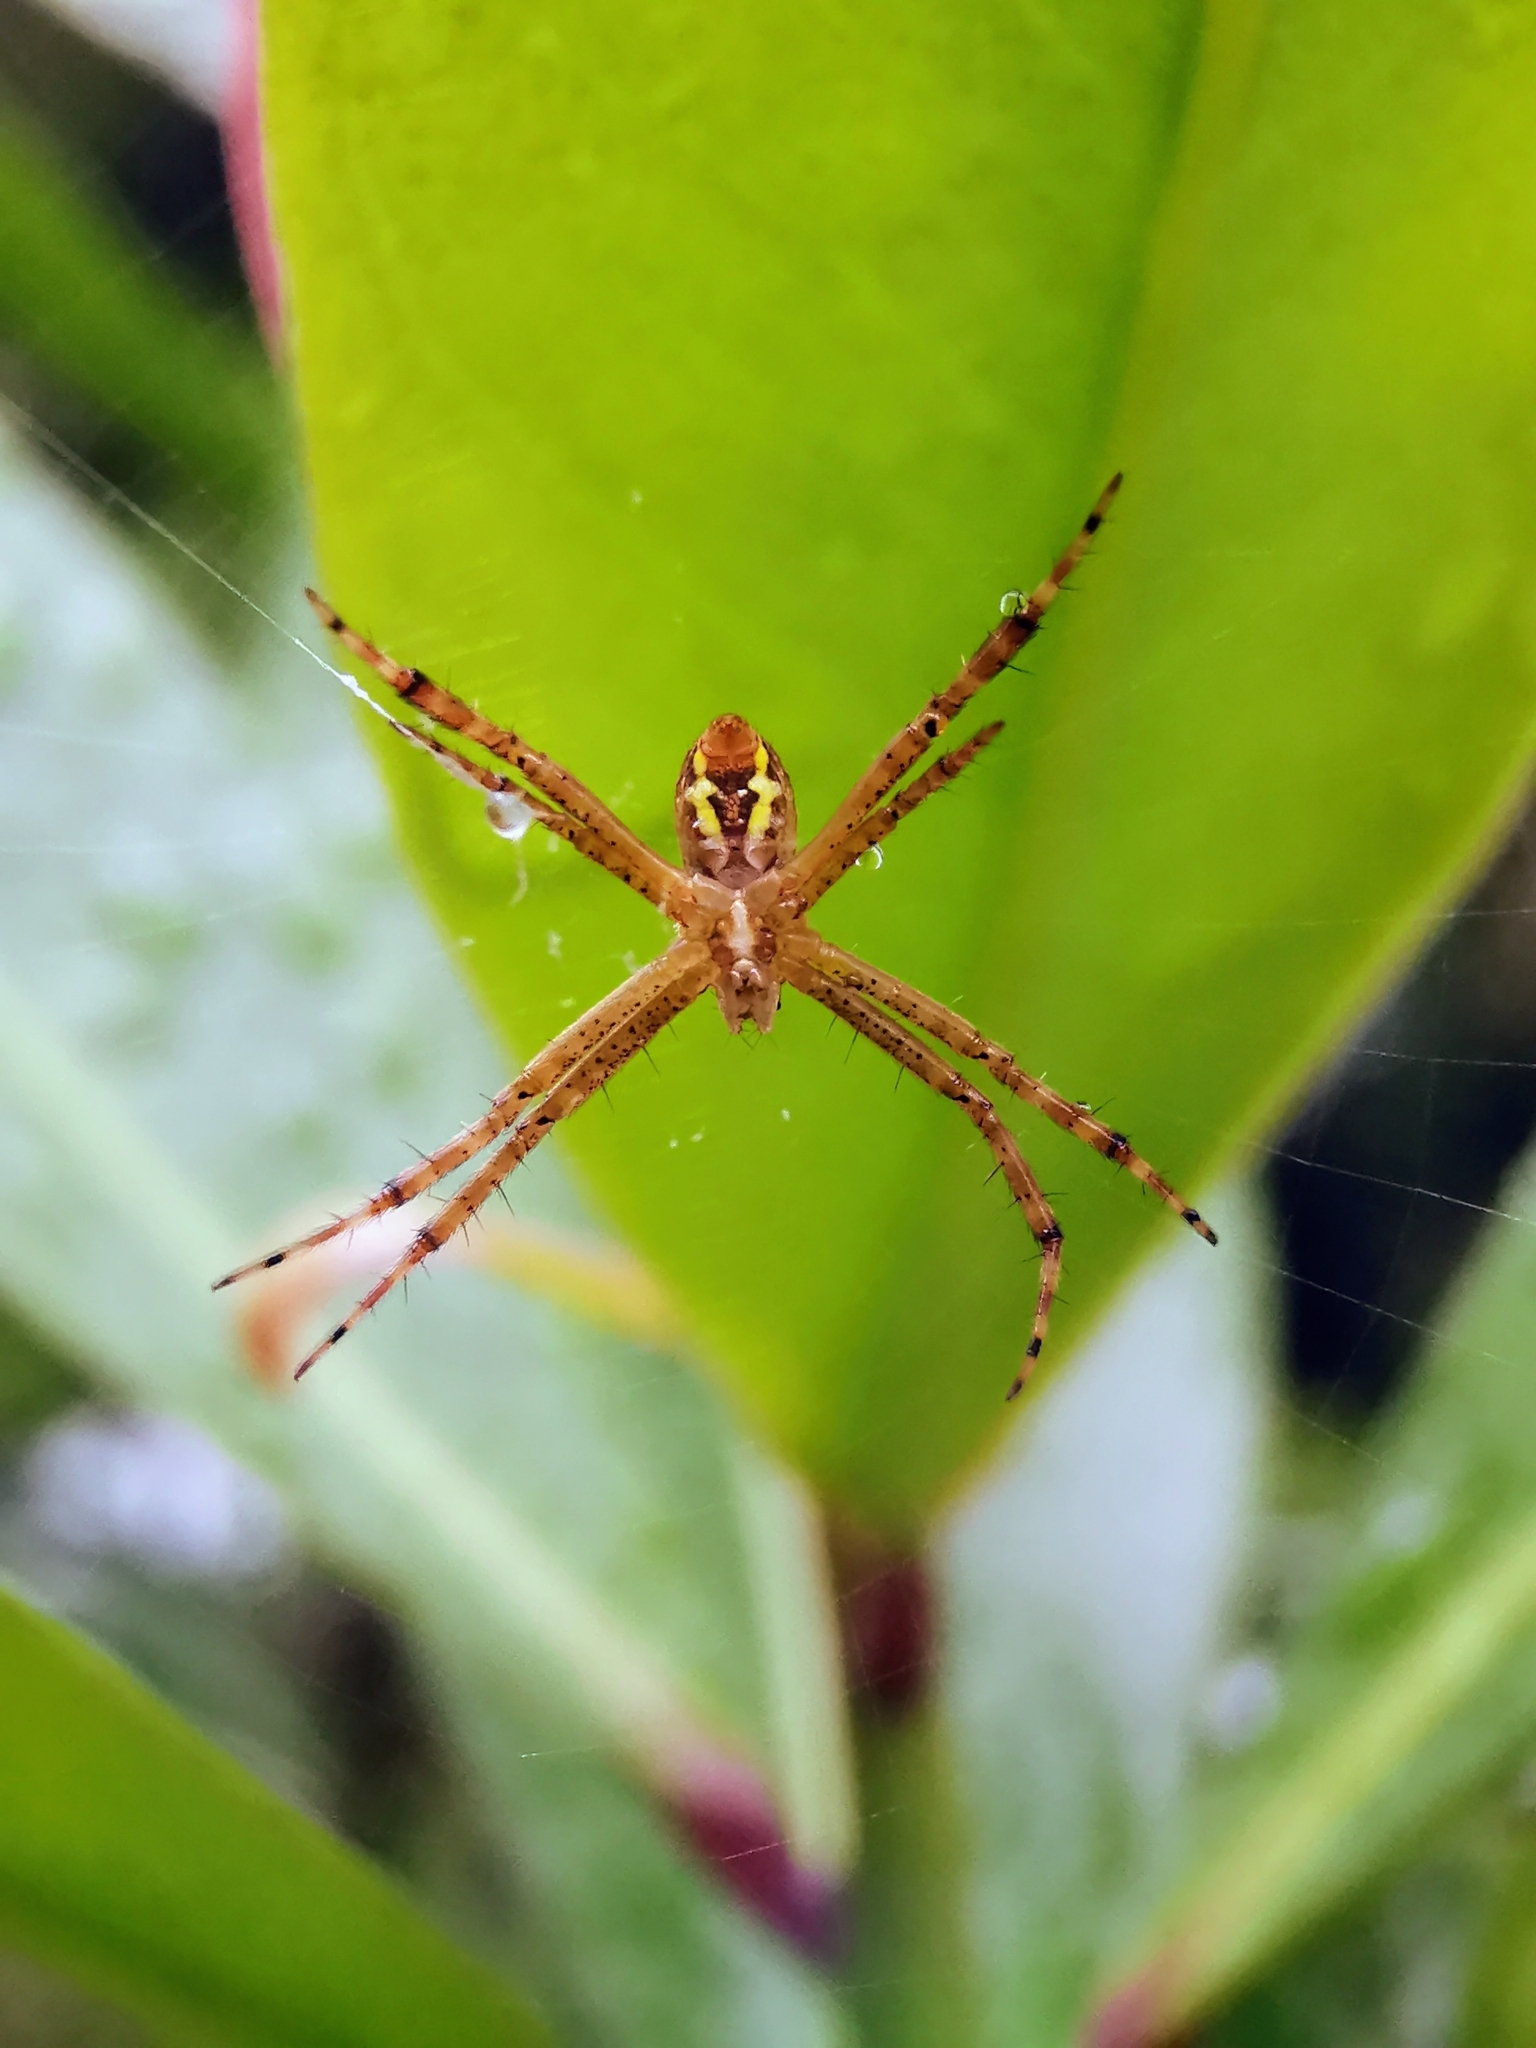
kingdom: Animalia
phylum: Arthropoda
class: Arachnida
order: Araneae
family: Araneidae
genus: Argiope
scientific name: Argiope
